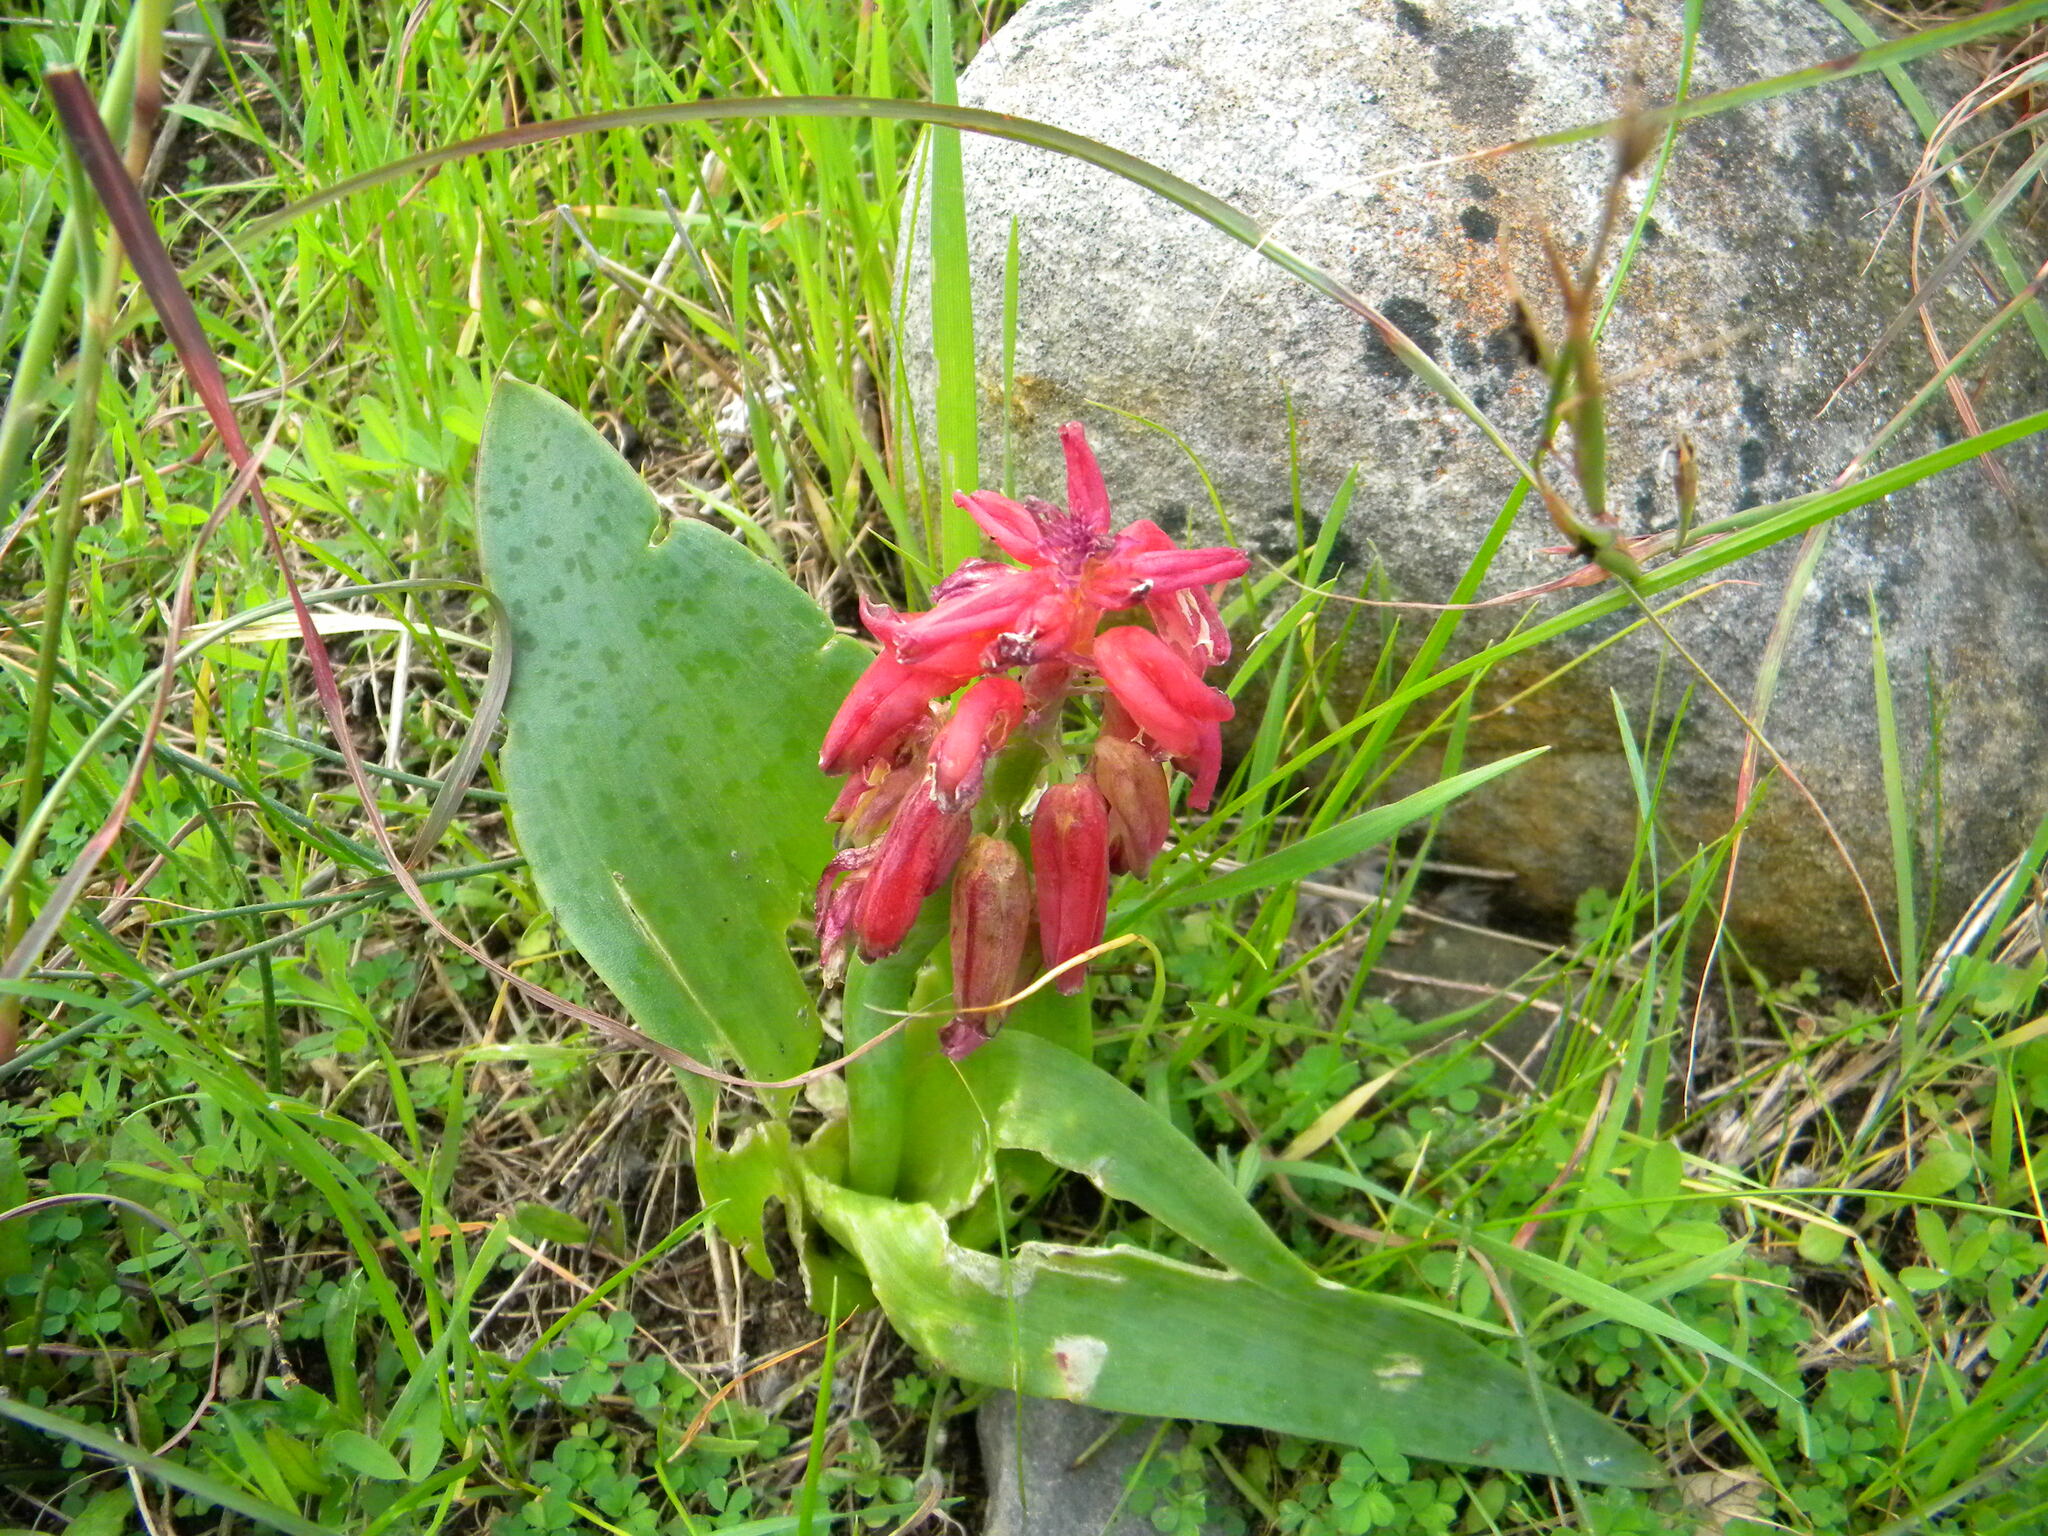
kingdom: Plantae
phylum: Tracheophyta
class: Liliopsida
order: Asparagales
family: Asparagaceae
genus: Lachenalia
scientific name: Lachenalia bulbifera
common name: Red lachenalia
